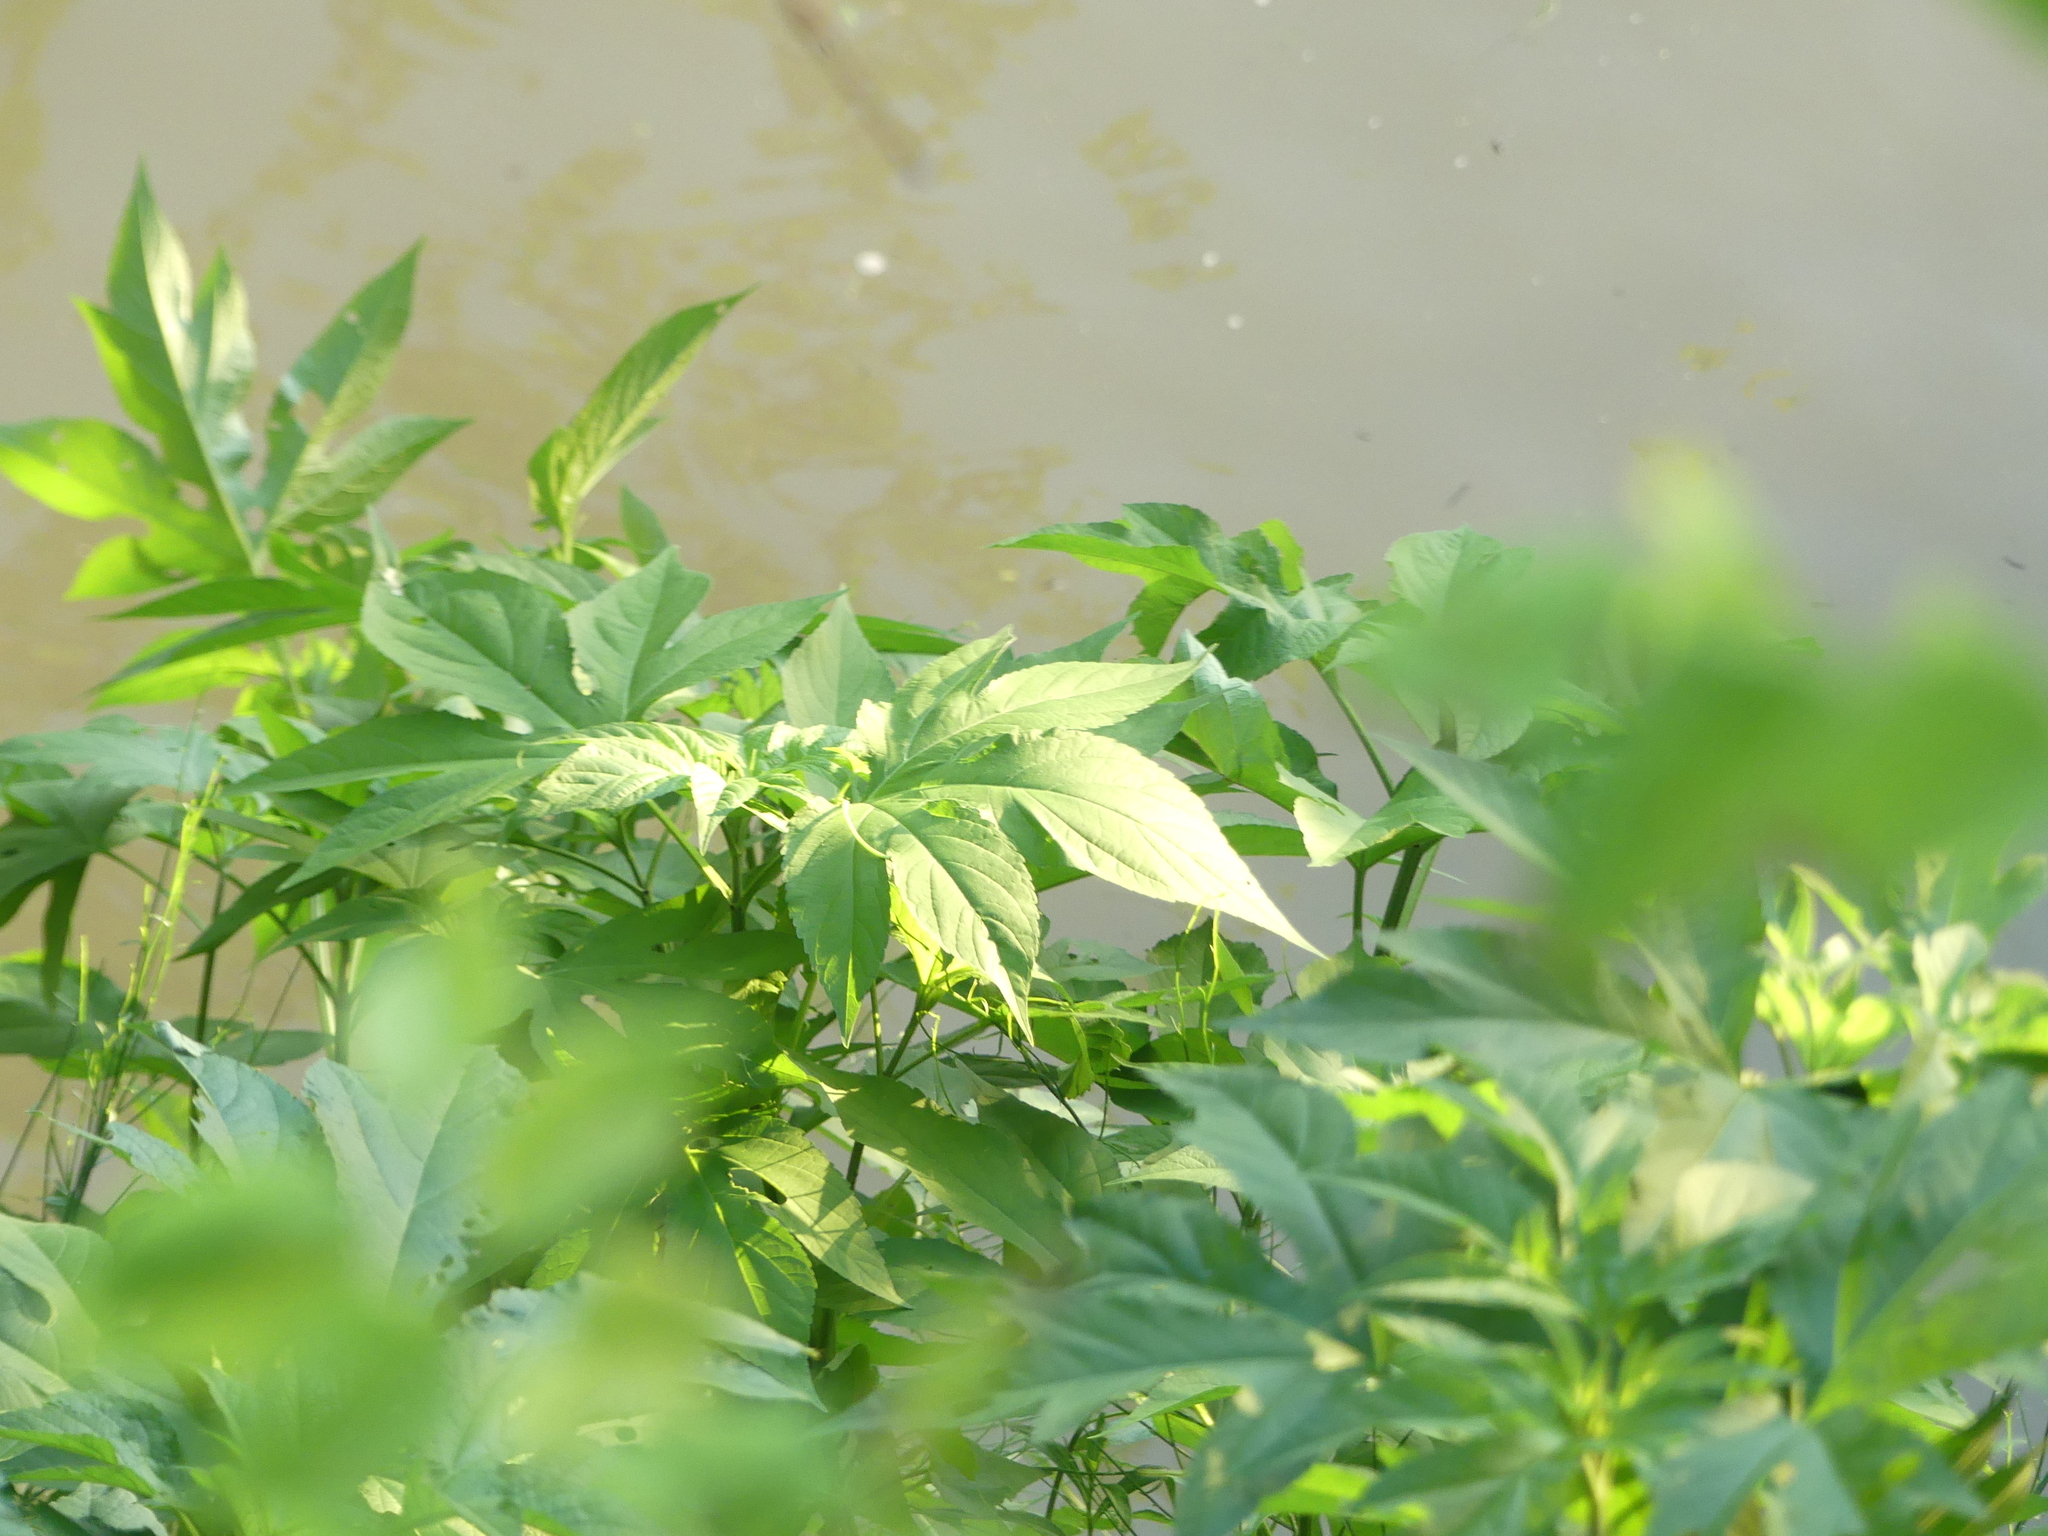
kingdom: Plantae
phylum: Tracheophyta
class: Magnoliopsida
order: Asterales
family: Asteraceae
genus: Ambrosia
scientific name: Ambrosia trifida
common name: Giant ragweed
